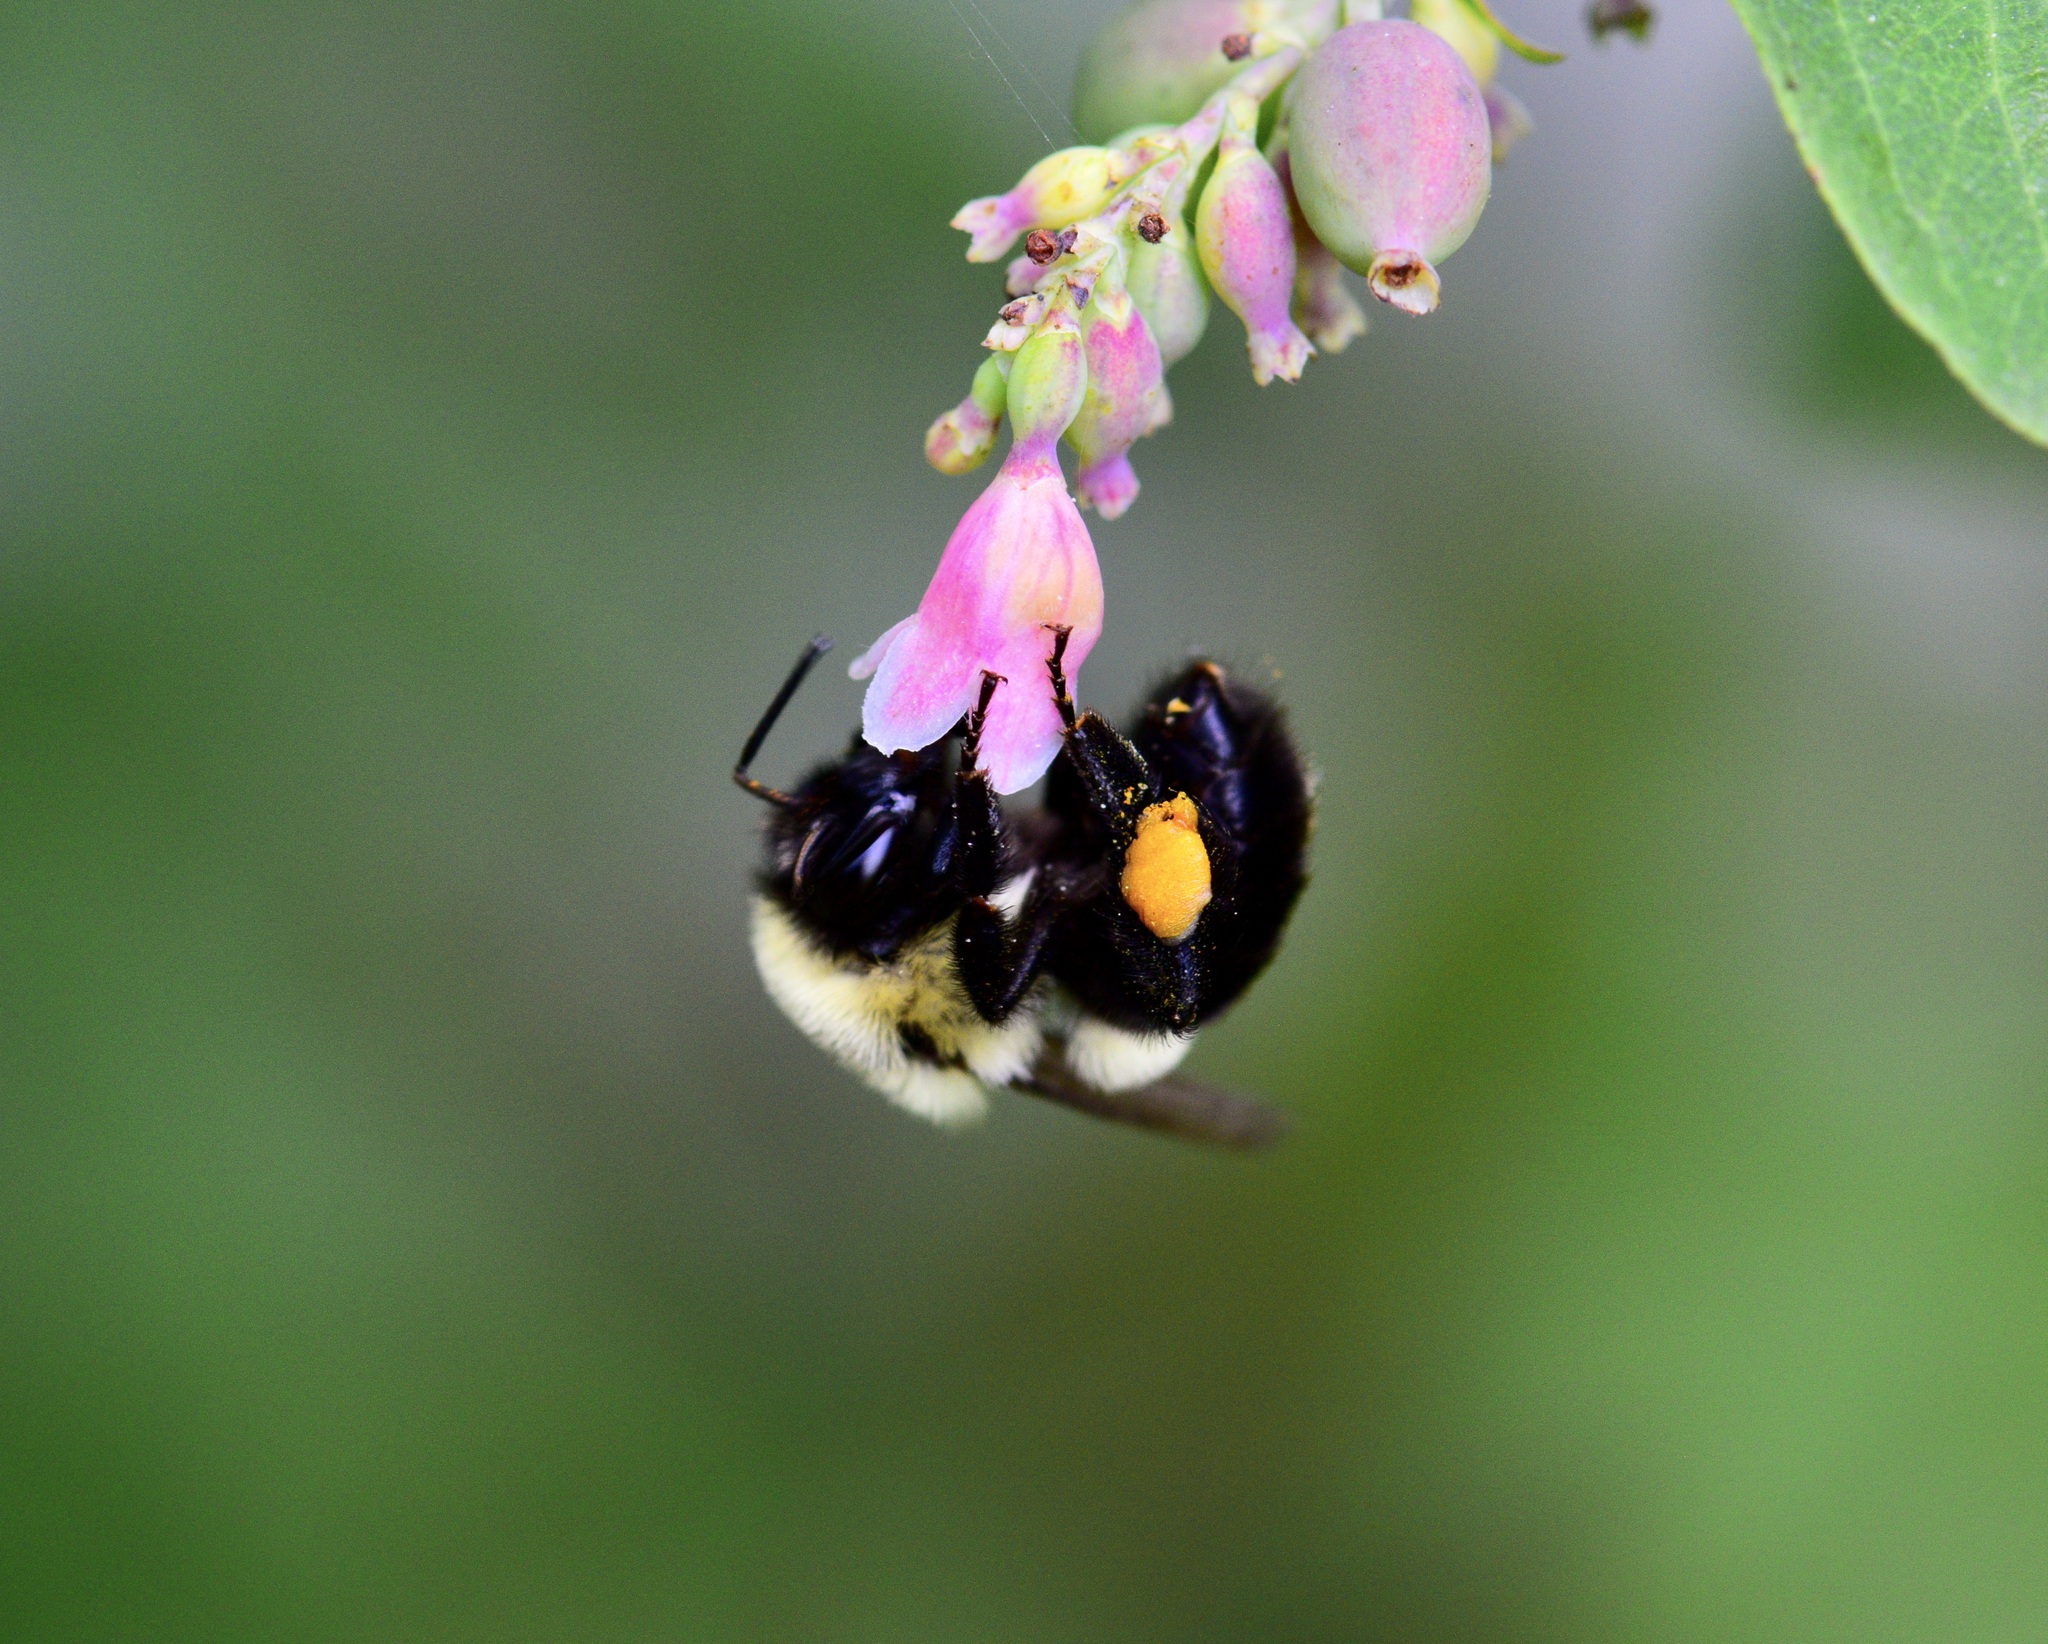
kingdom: Animalia
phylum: Arthropoda
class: Insecta
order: Hymenoptera
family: Apidae
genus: Bombus
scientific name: Bombus impatiens
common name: Common eastern bumble bee
